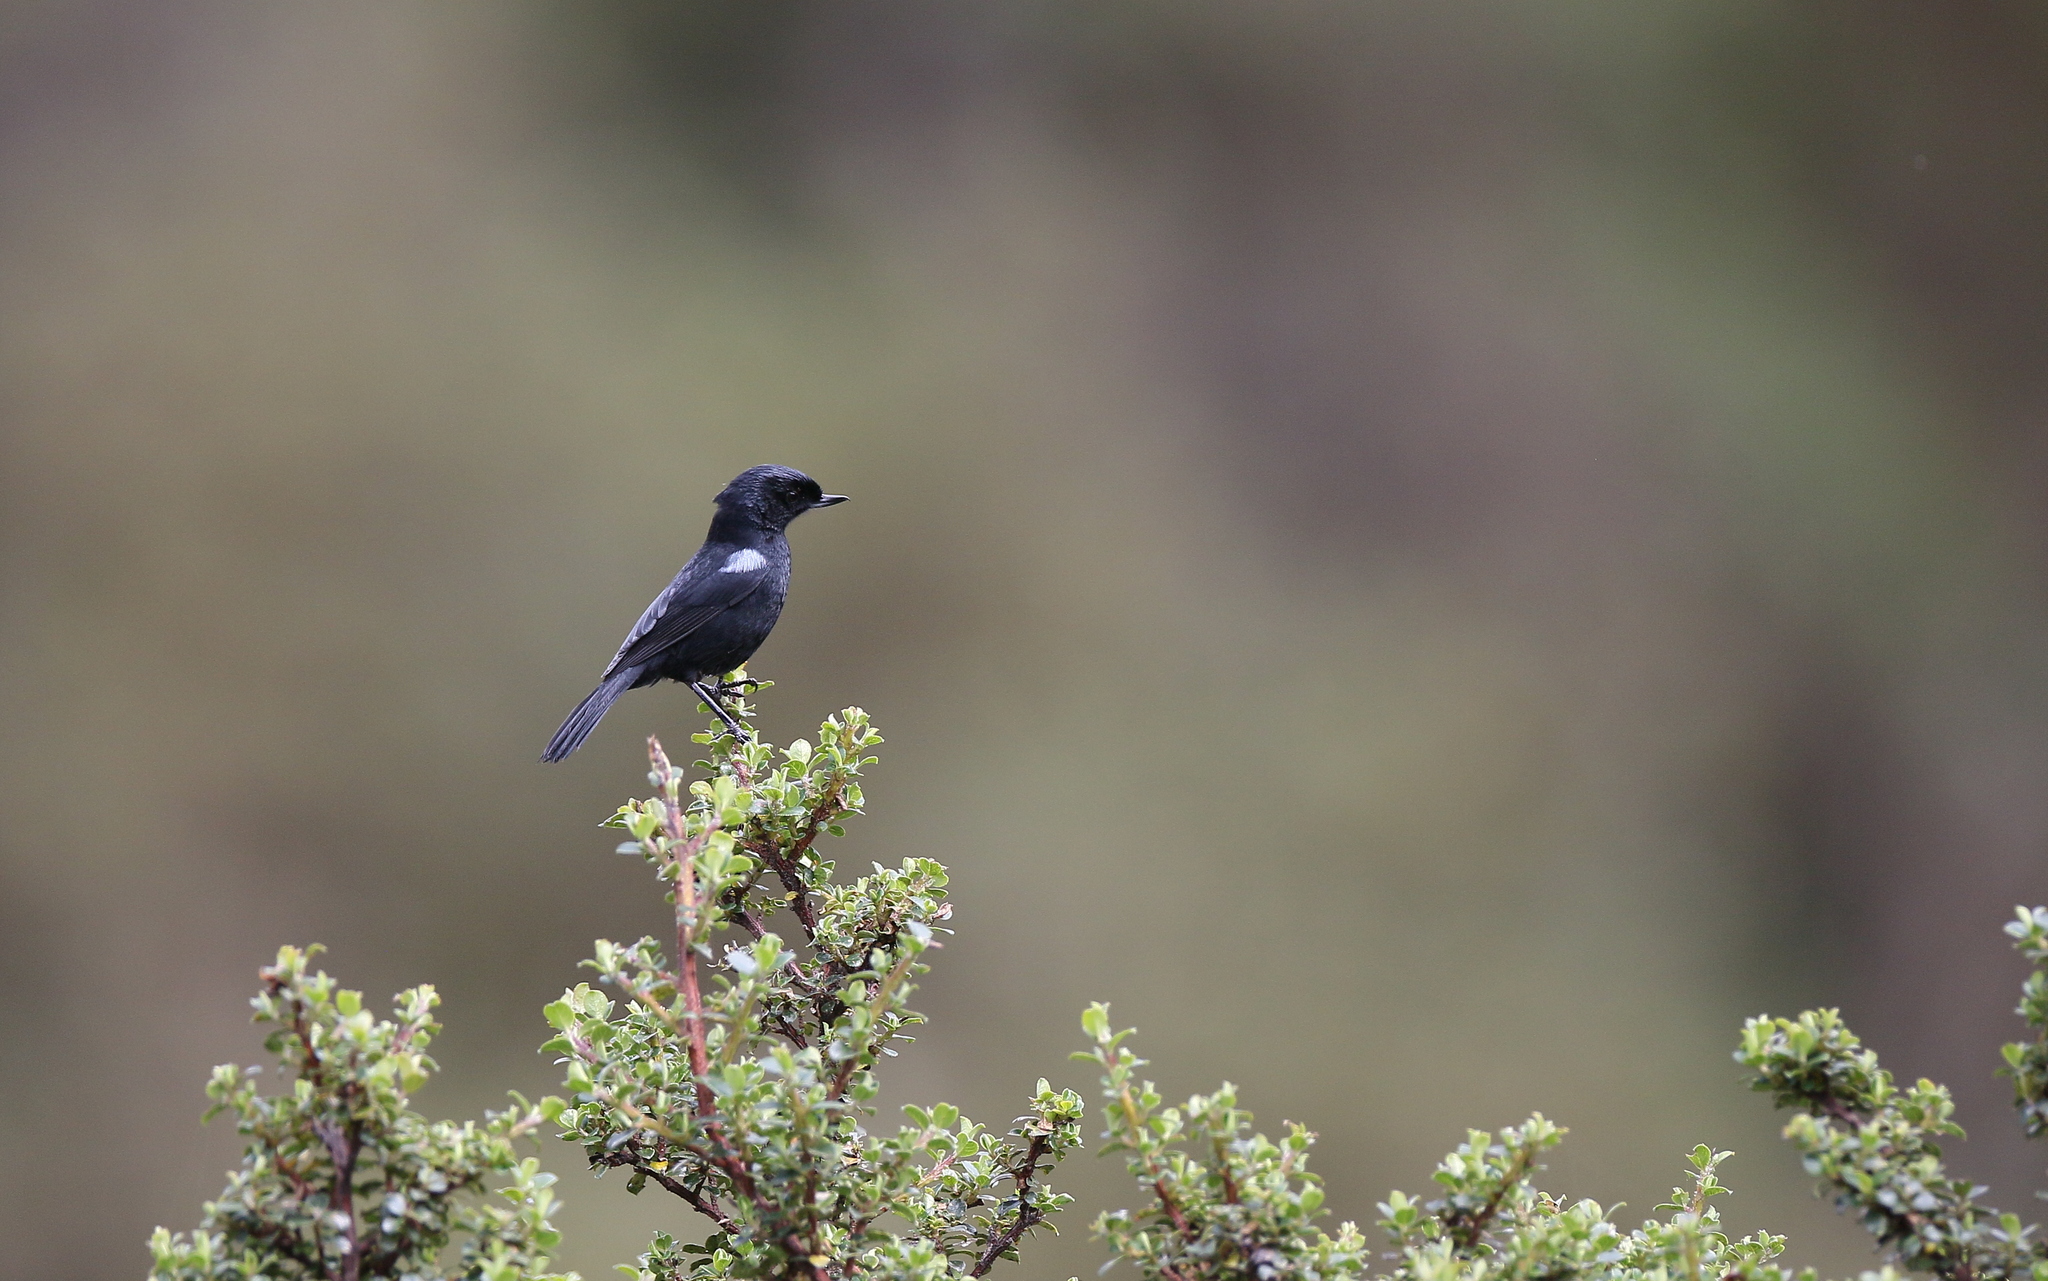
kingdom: Animalia
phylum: Chordata
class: Aves
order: Passeriformes
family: Thraupidae
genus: Diglossa
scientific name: Diglossa lafresnayii
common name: Glossy flowerpiercer
